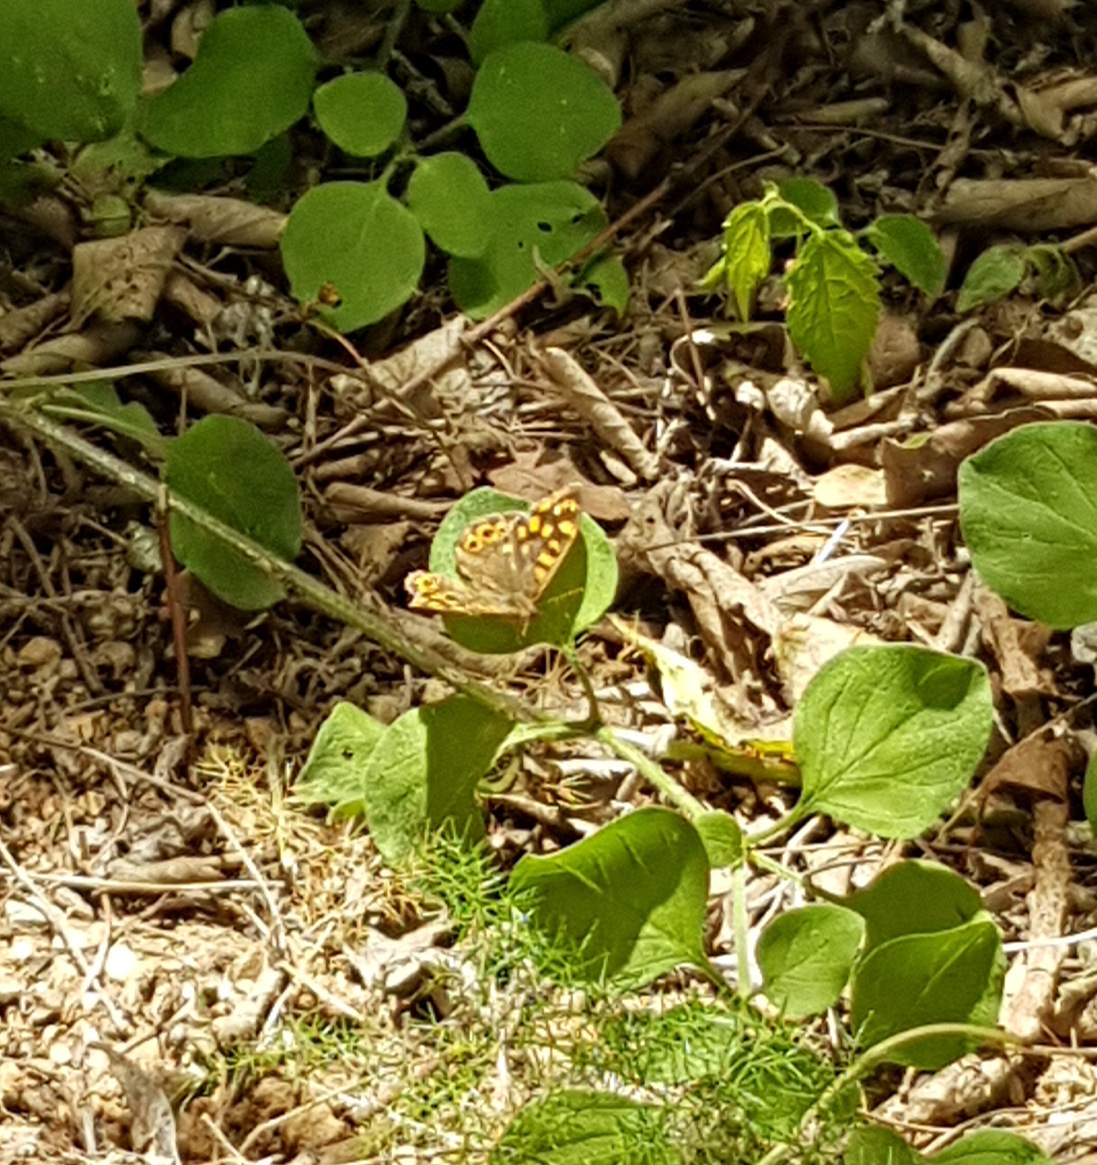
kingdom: Animalia
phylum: Arthropoda
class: Insecta
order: Lepidoptera
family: Nymphalidae
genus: Pararge
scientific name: Pararge aegeria
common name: Speckled wood
